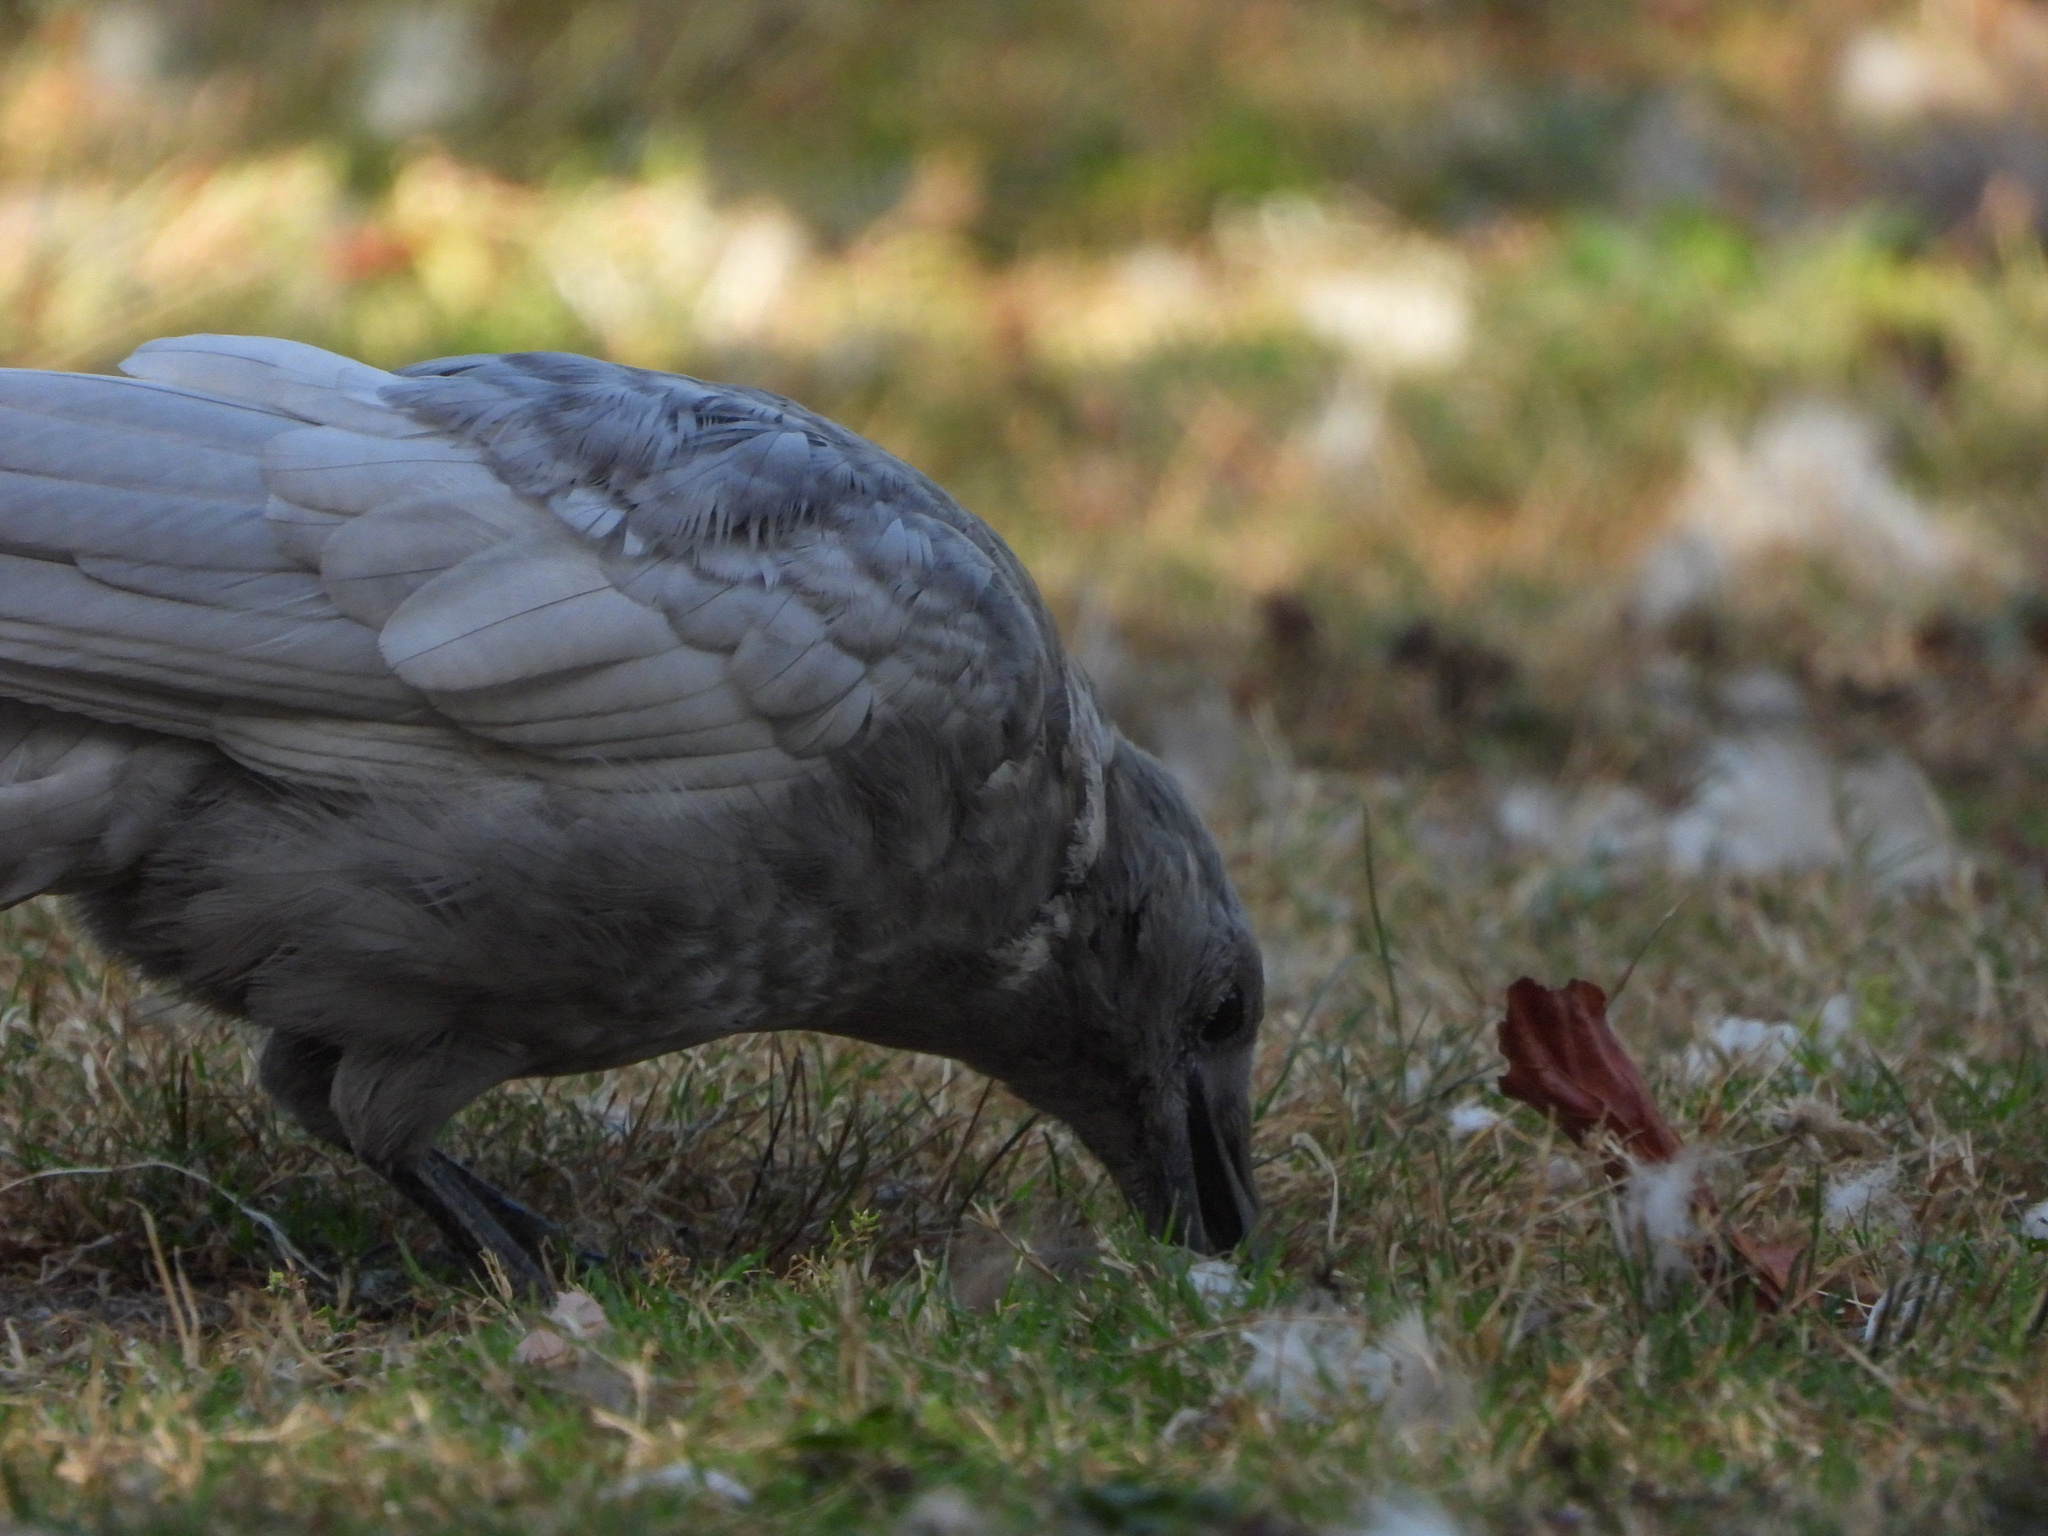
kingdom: Animalia
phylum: Chordata
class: Aves
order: Passeriformes
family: Corvidae
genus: Corvus
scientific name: Corvus brachyrhynchos
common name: American crow
